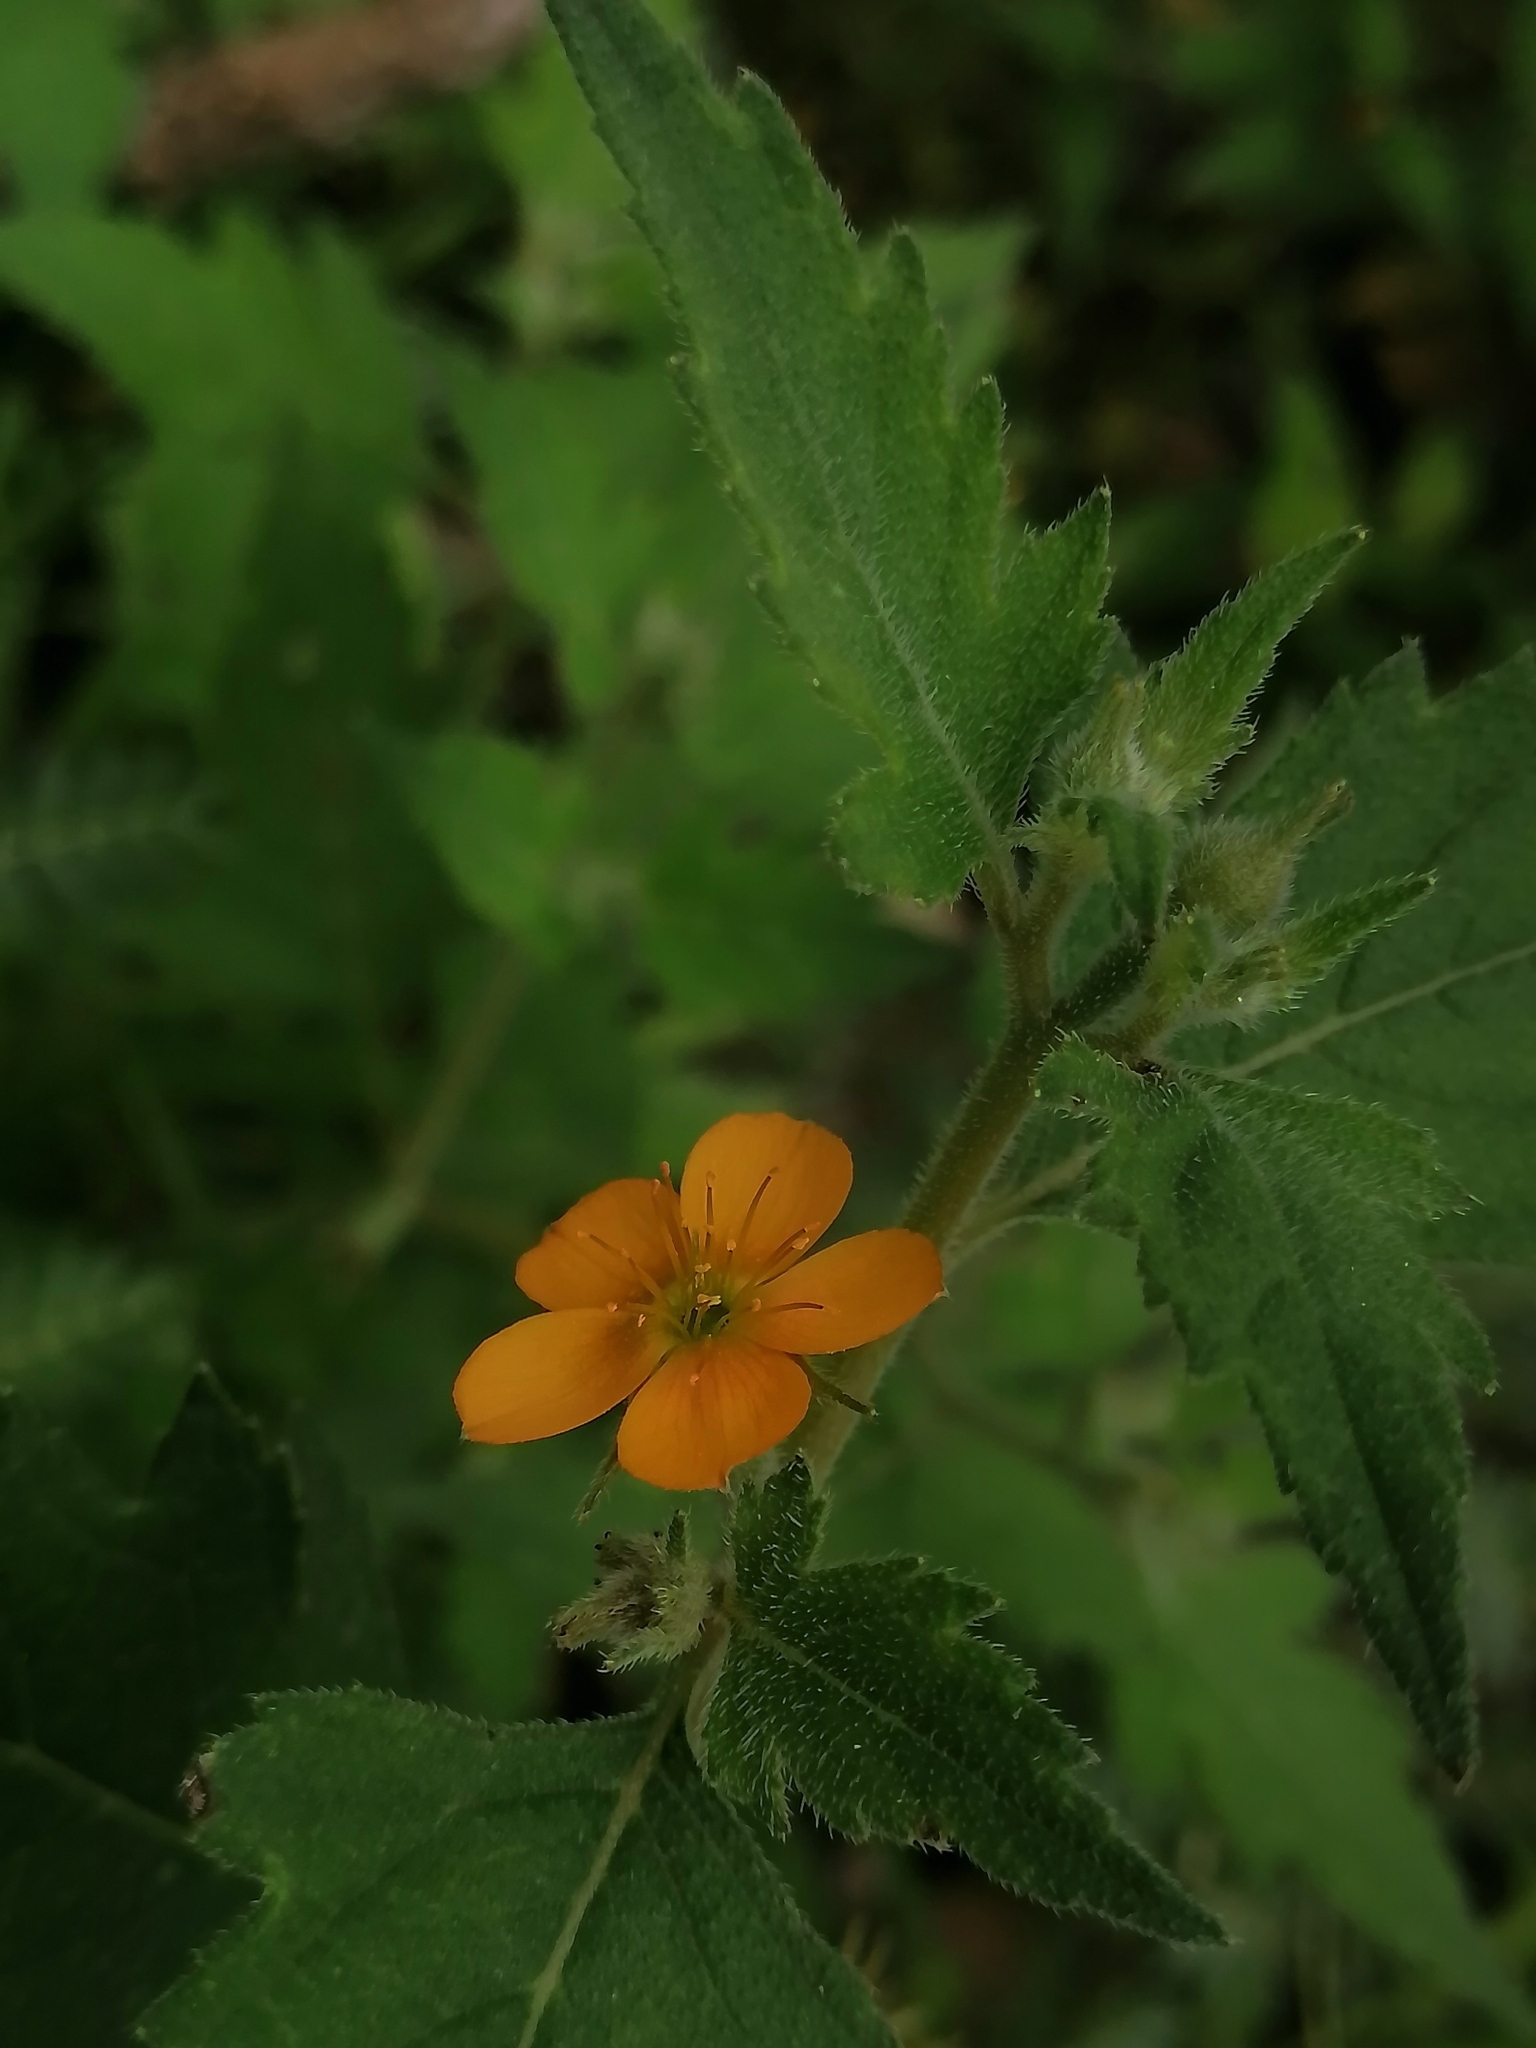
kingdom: Plantae
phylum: Tracheophyta
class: Magnoliopsida
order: Cornales
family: Loasaceae
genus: Mentzelia
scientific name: Mentzelia aspera
